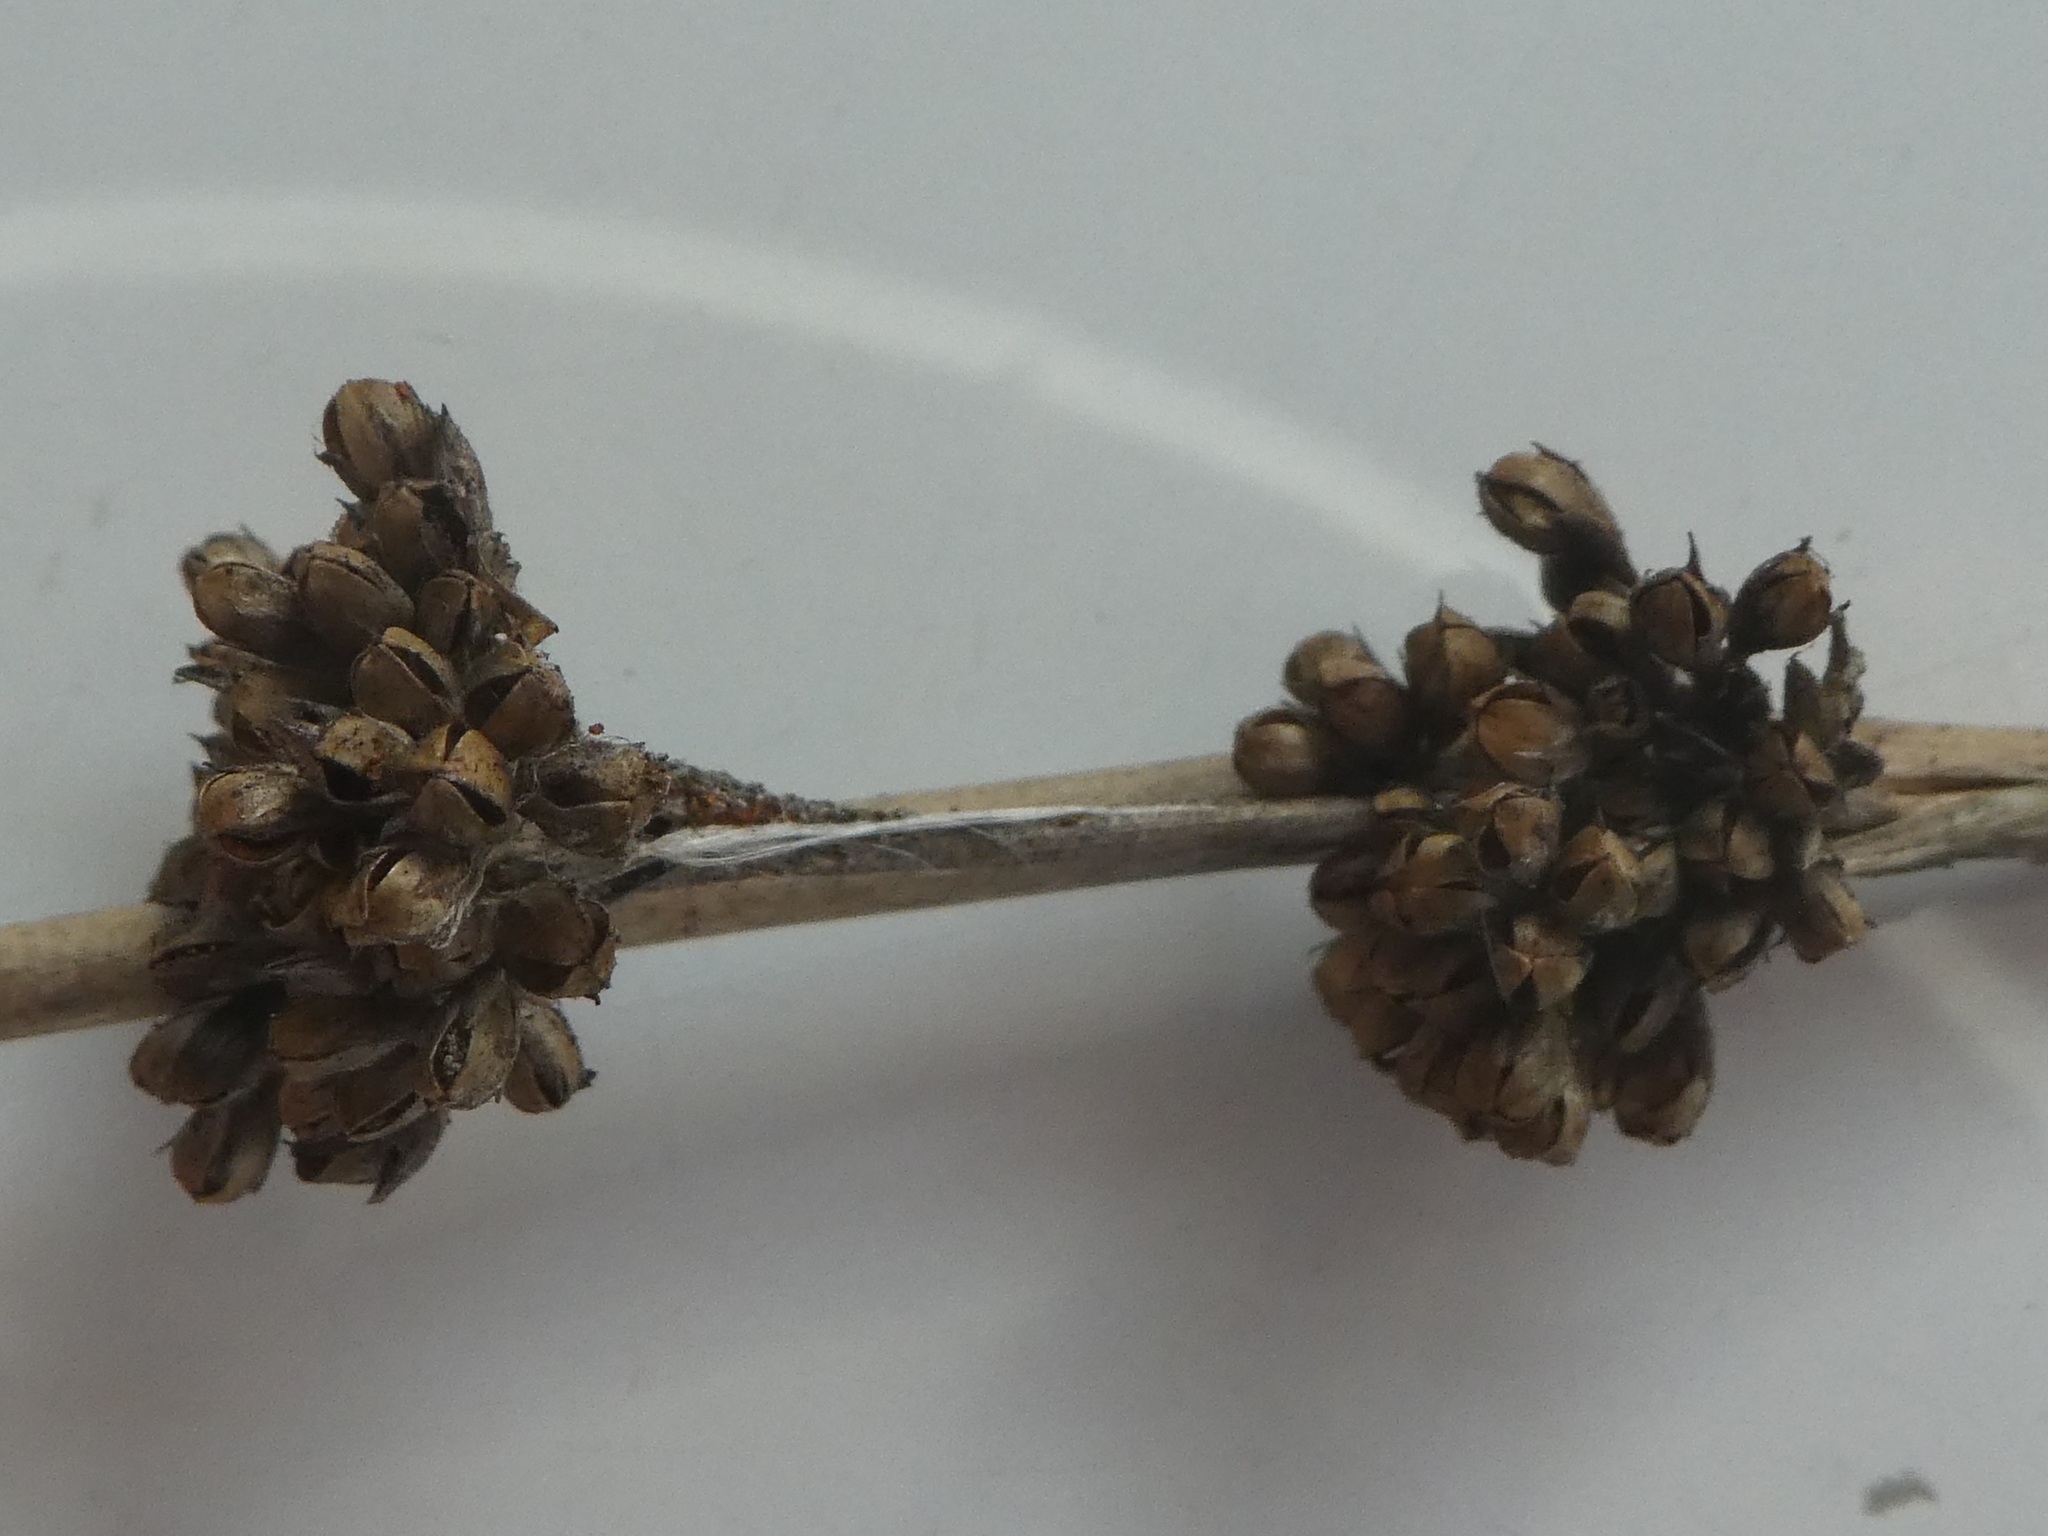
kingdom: Plantae
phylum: Tracheophyta
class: Liliopsida
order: Poales
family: Juncaceae
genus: Juncus
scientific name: Juncus pallidus
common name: Great soft-rush
